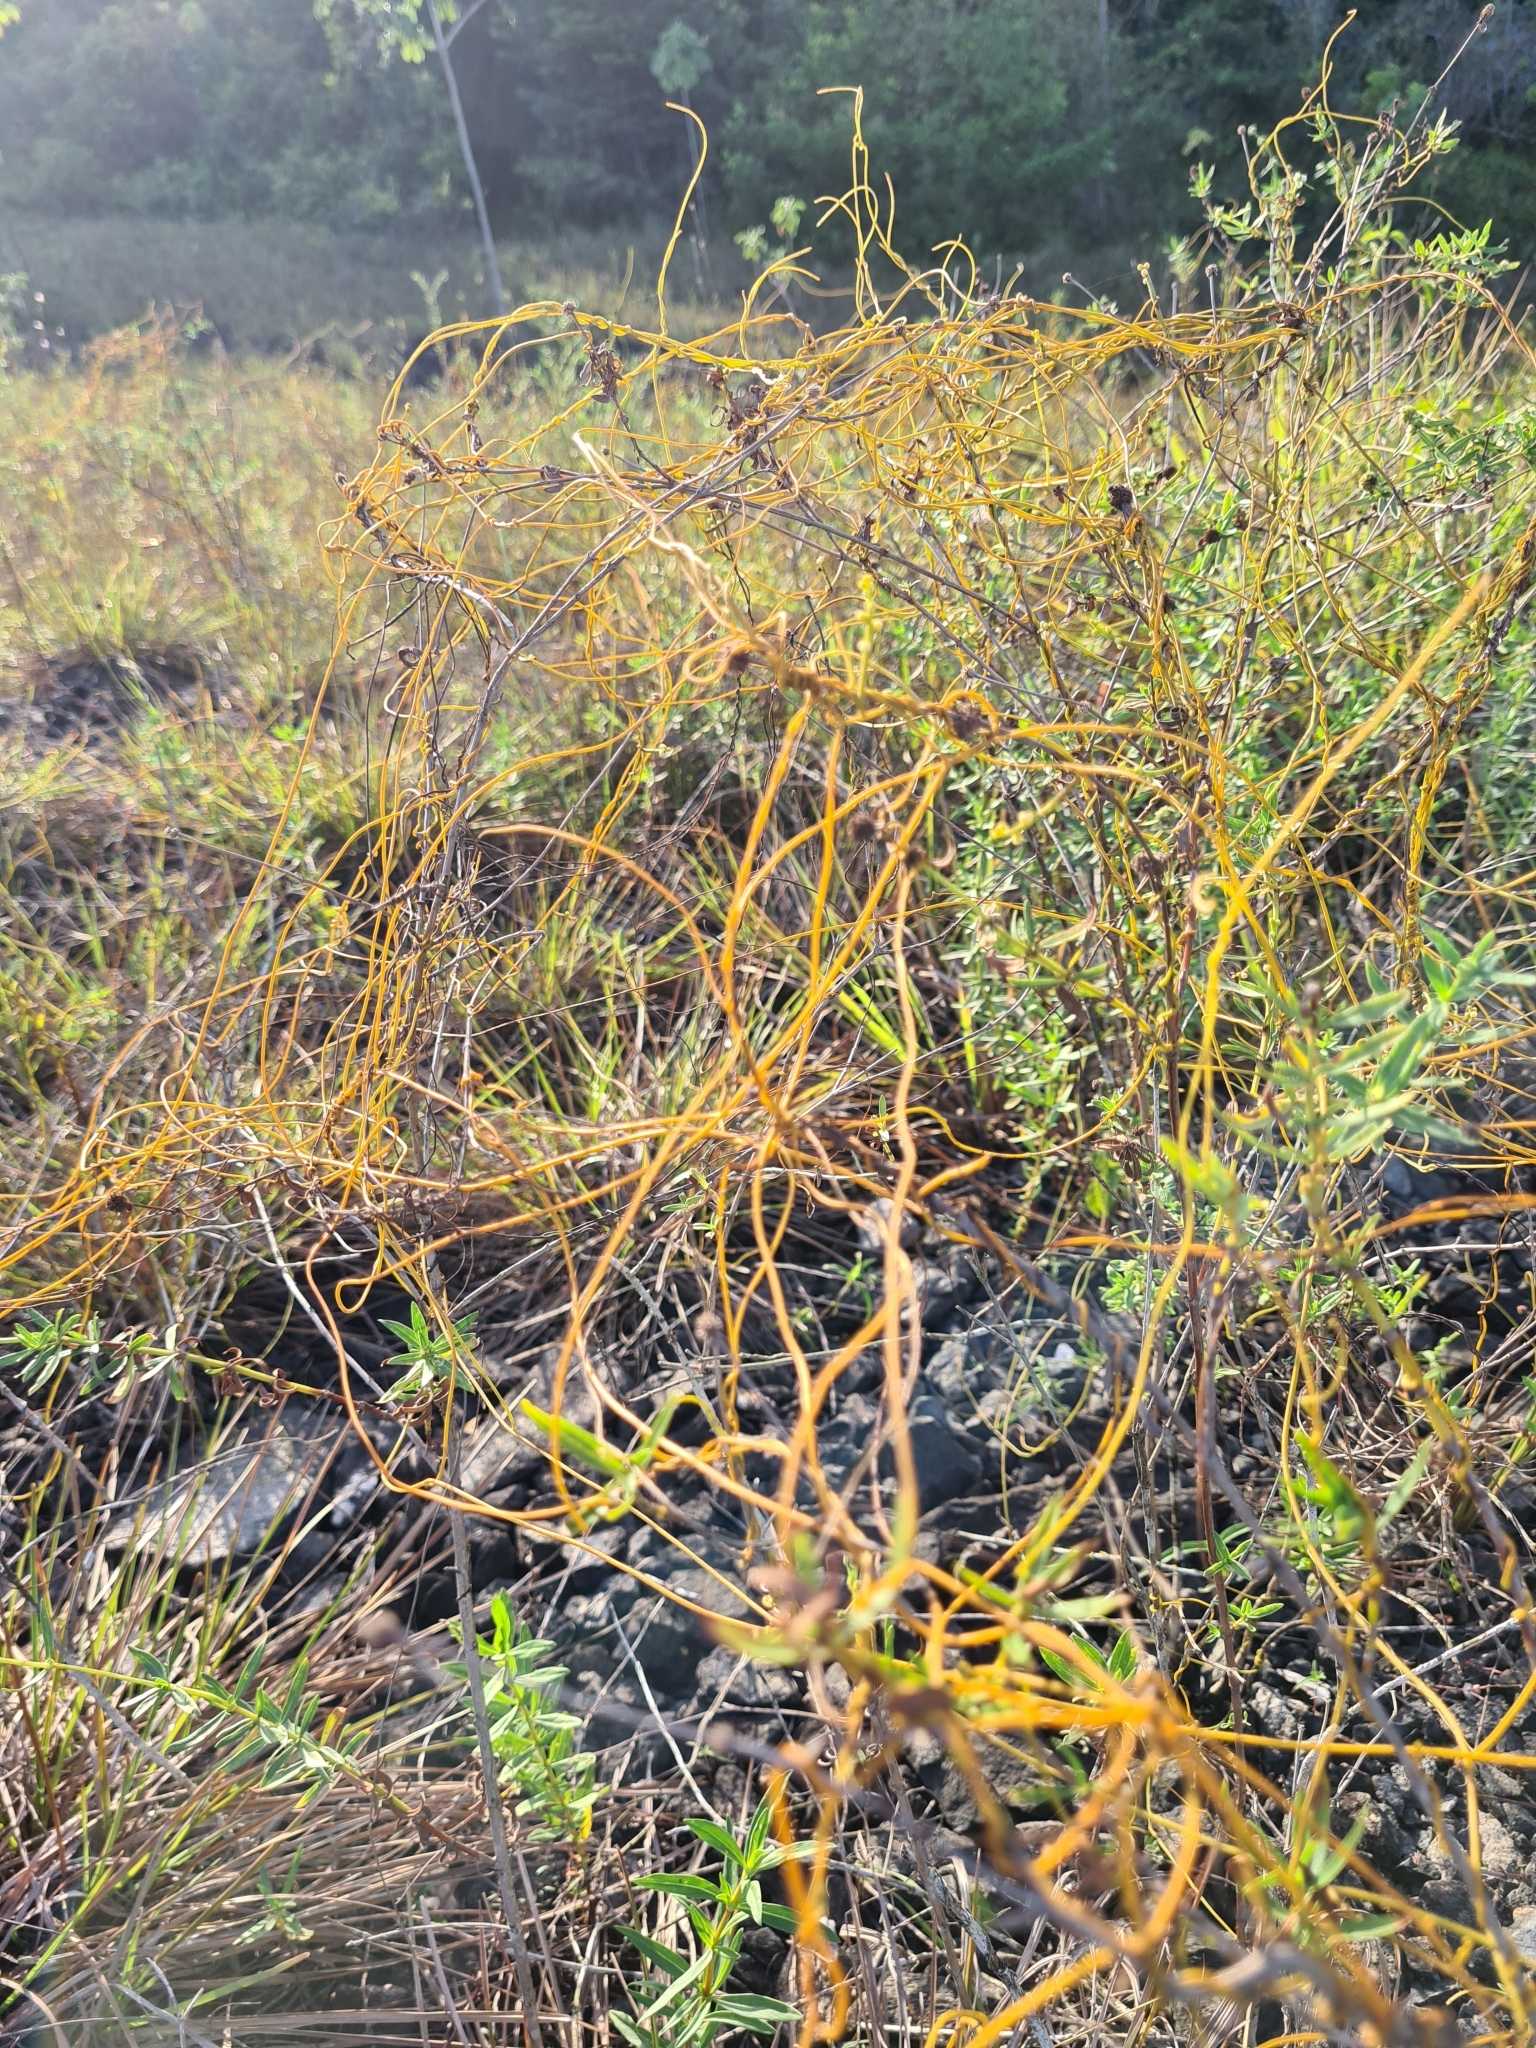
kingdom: Plantae
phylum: Tracheophyta
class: Magnoliopsida
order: Laurales
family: Lauraceae
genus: Cassytha
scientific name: Cassytha filiformis
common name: Dodder-laurel
